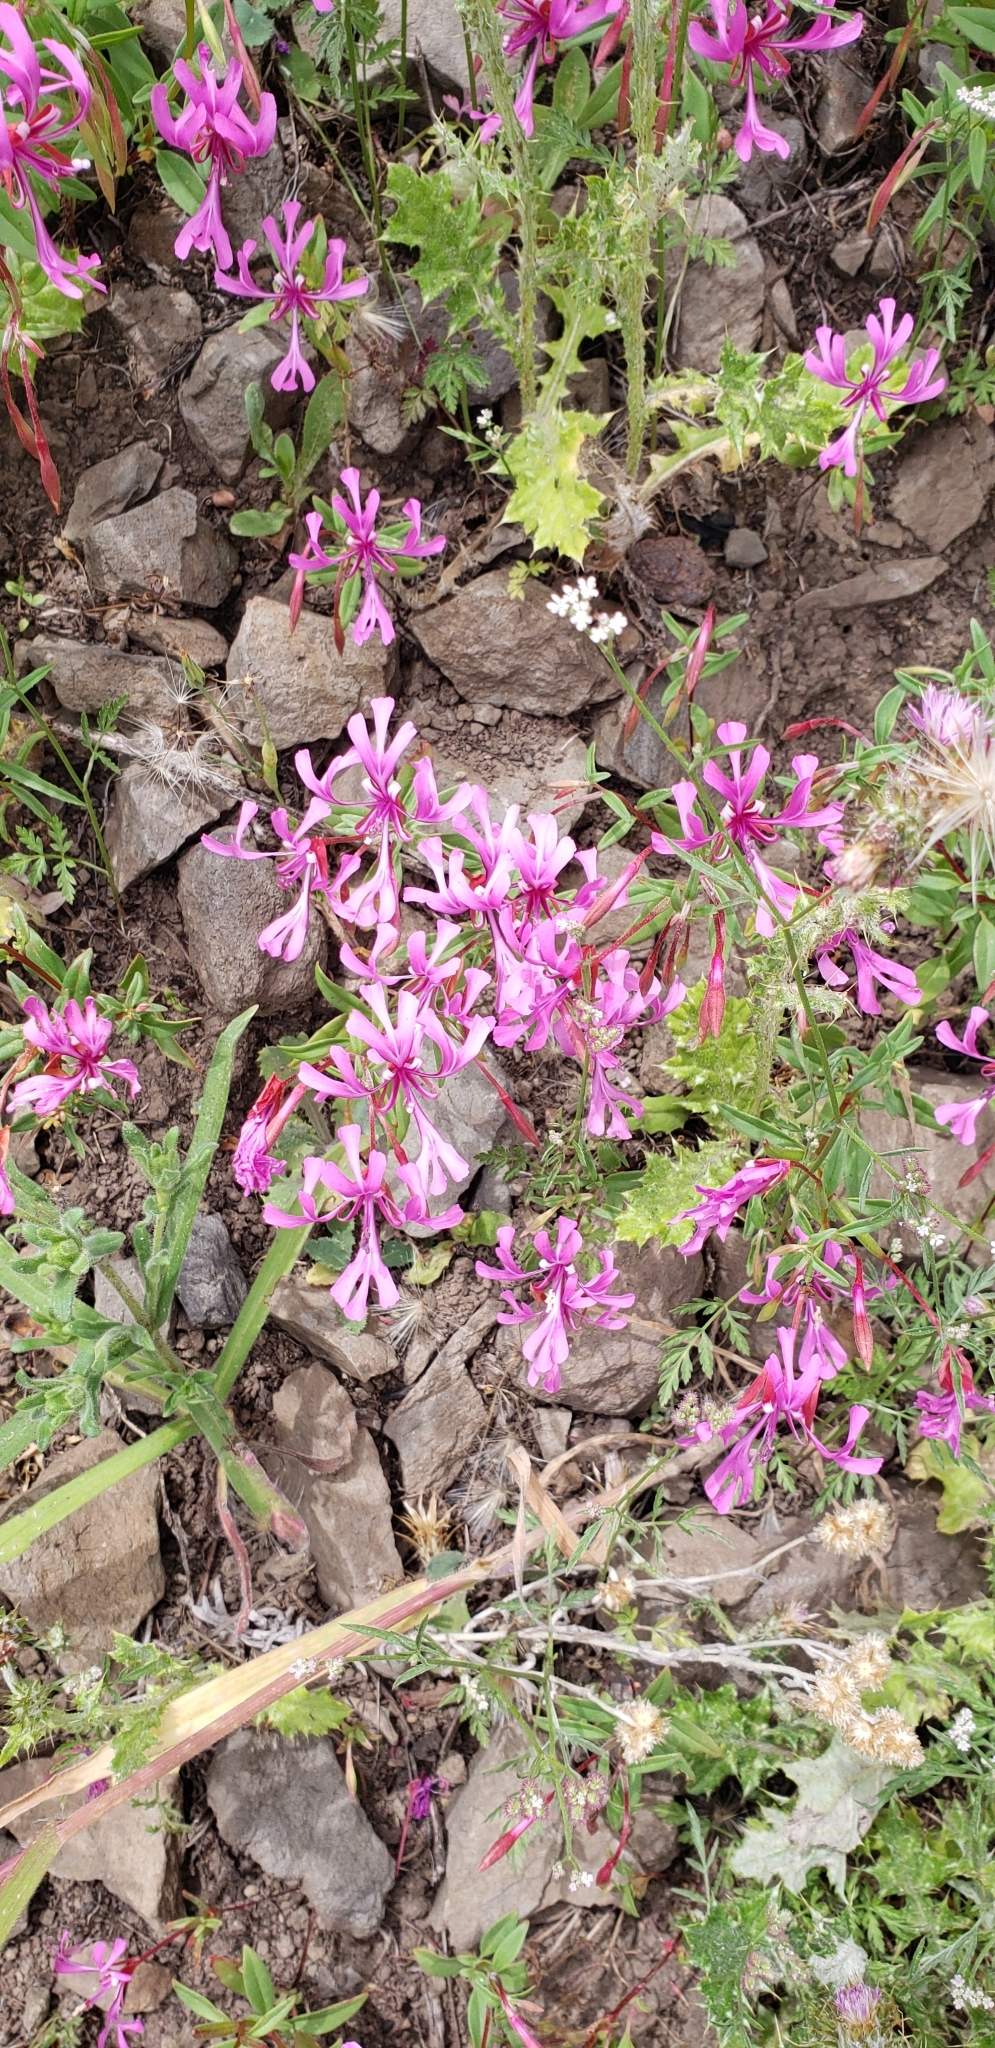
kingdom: Plantae
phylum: Tracheophyta
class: Magnoliopsida
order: Myrtales
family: Onagraceae
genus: Clarkia
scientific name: Clarkia concinna
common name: Red-ribbons
